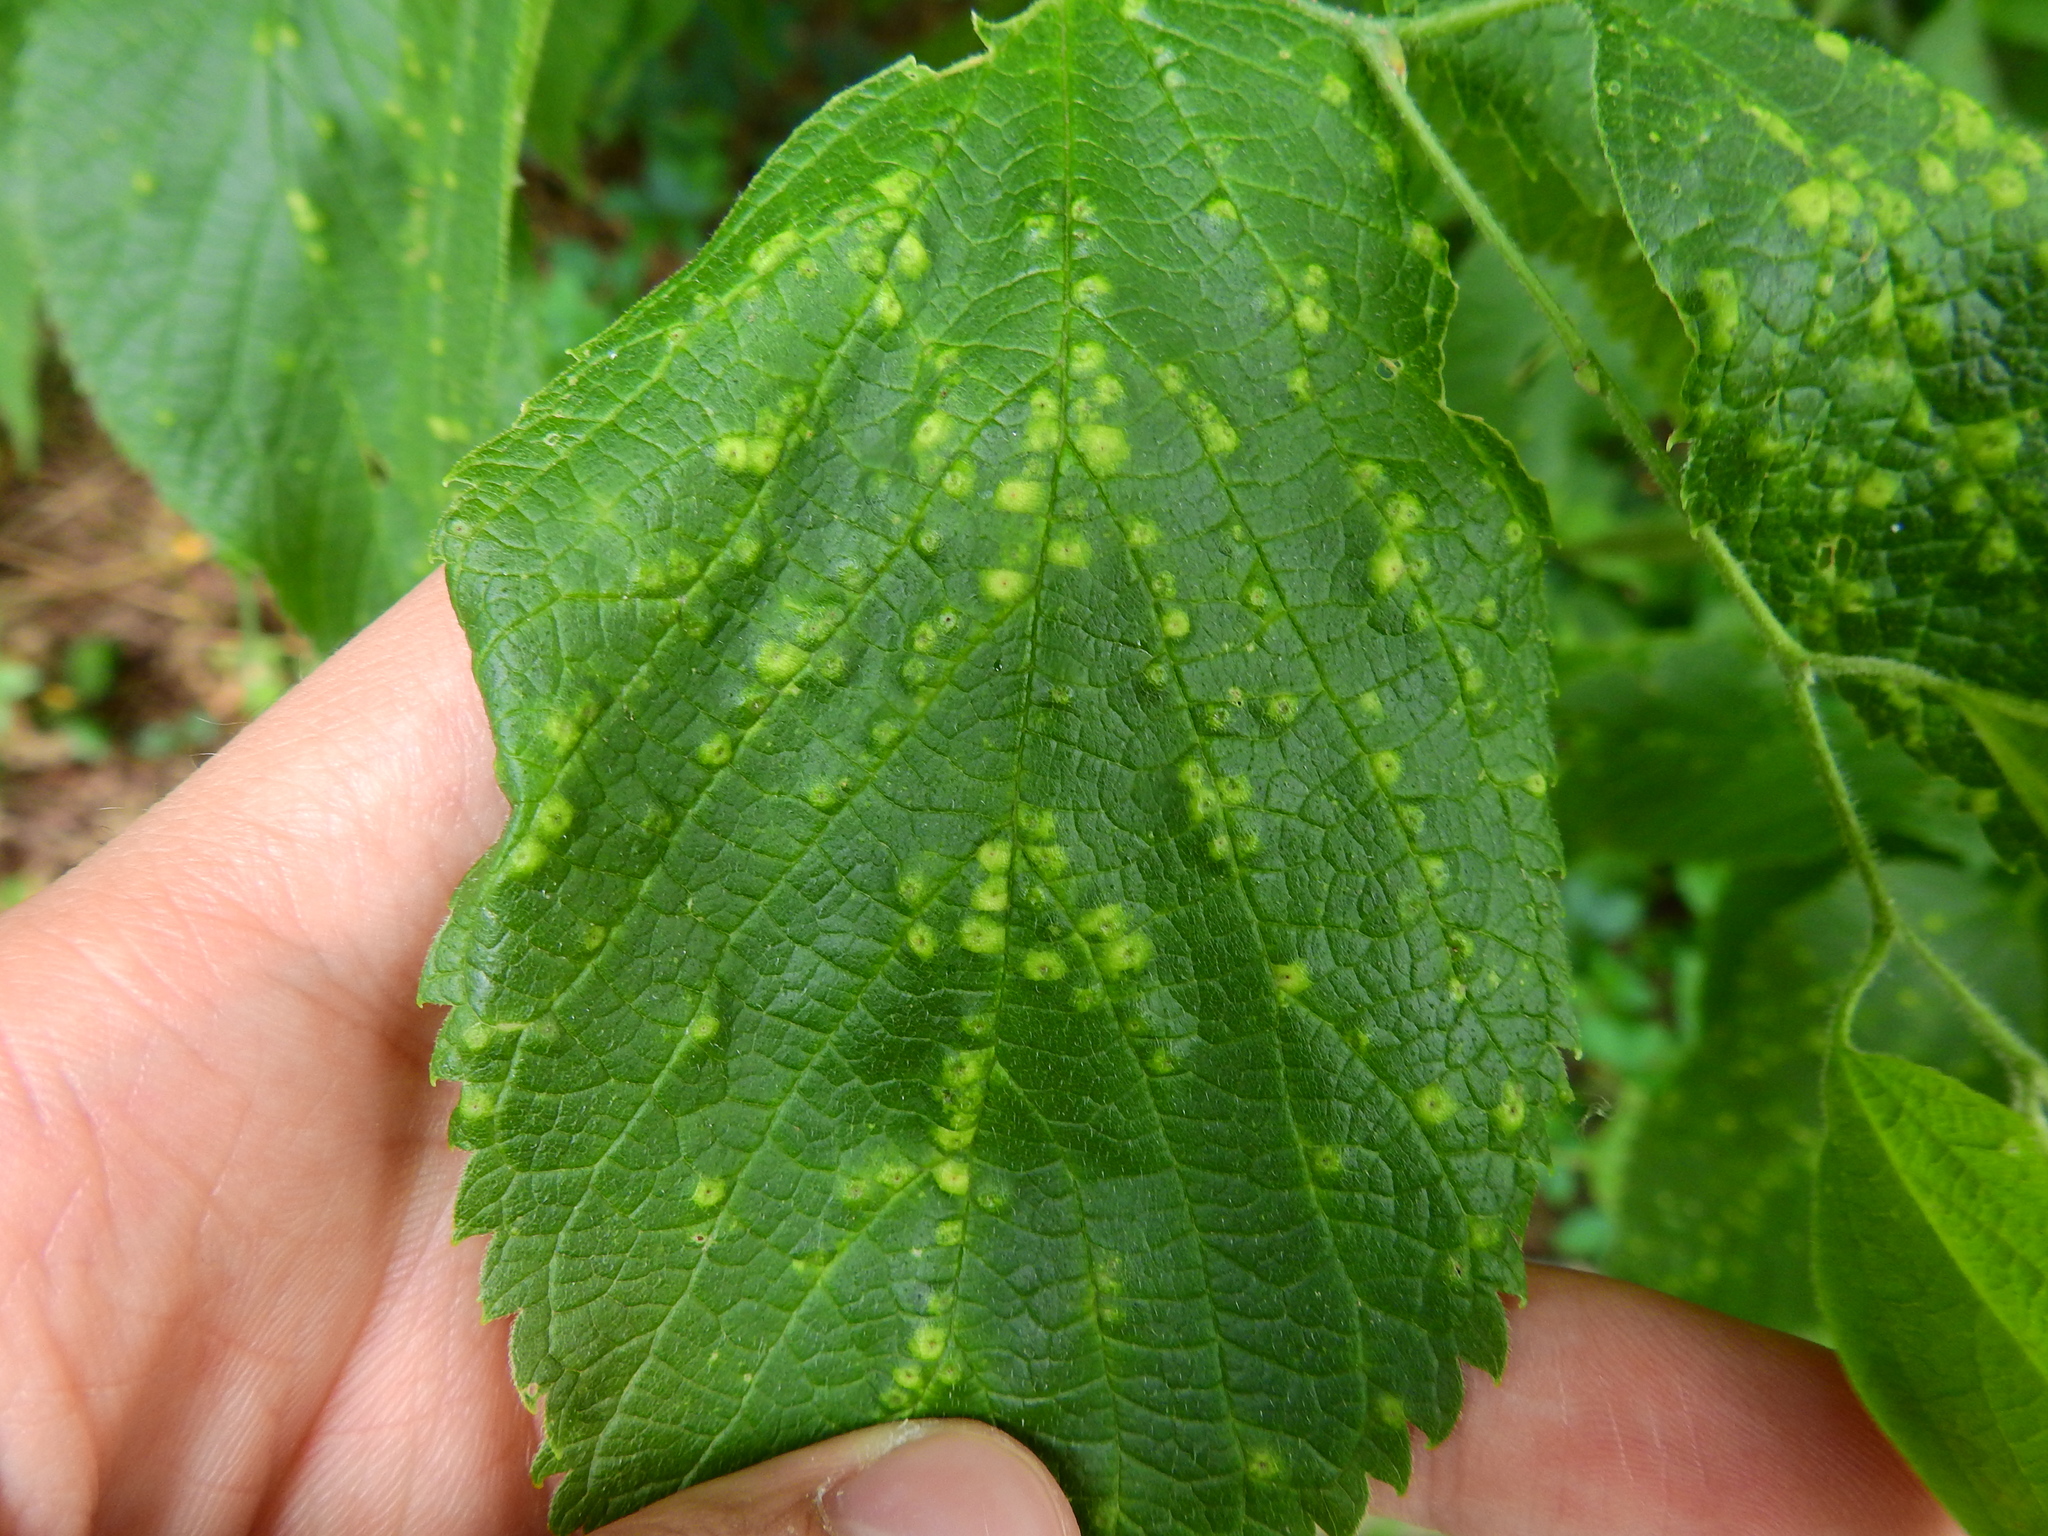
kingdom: Animalia
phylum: Arthropoda
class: Insecta
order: Hemiptera
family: Aphalaridae
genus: Pachypsylla
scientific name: Pachypsylla celtidisvesicula
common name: Hackberry blister gall psyllid
